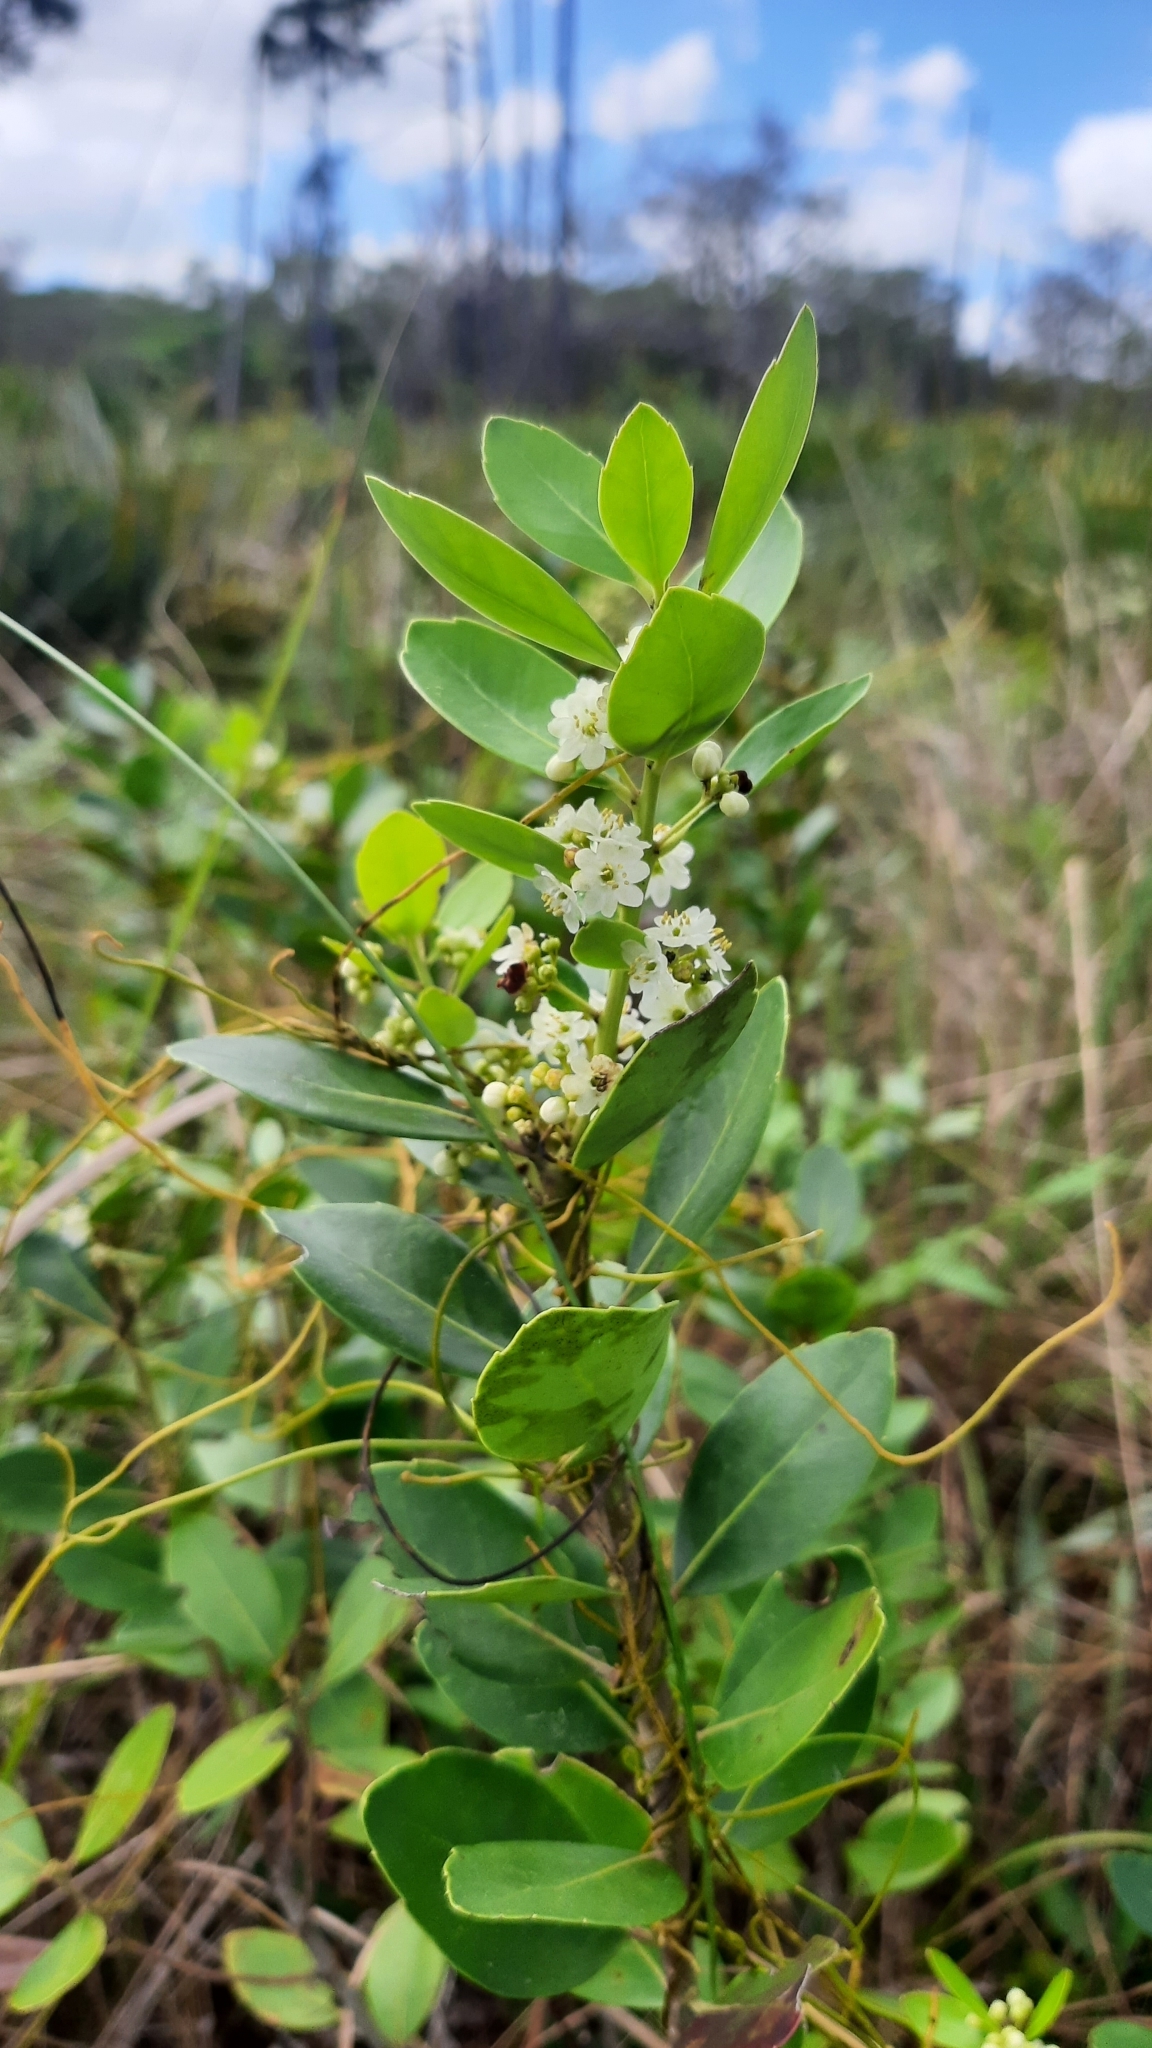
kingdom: Plantae
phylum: Tracheophyta
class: Magnoliopsida
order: Aquifoliales
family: Aquifoliaceae
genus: Ilex
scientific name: Ilex glabra
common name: Bitter gallberry
